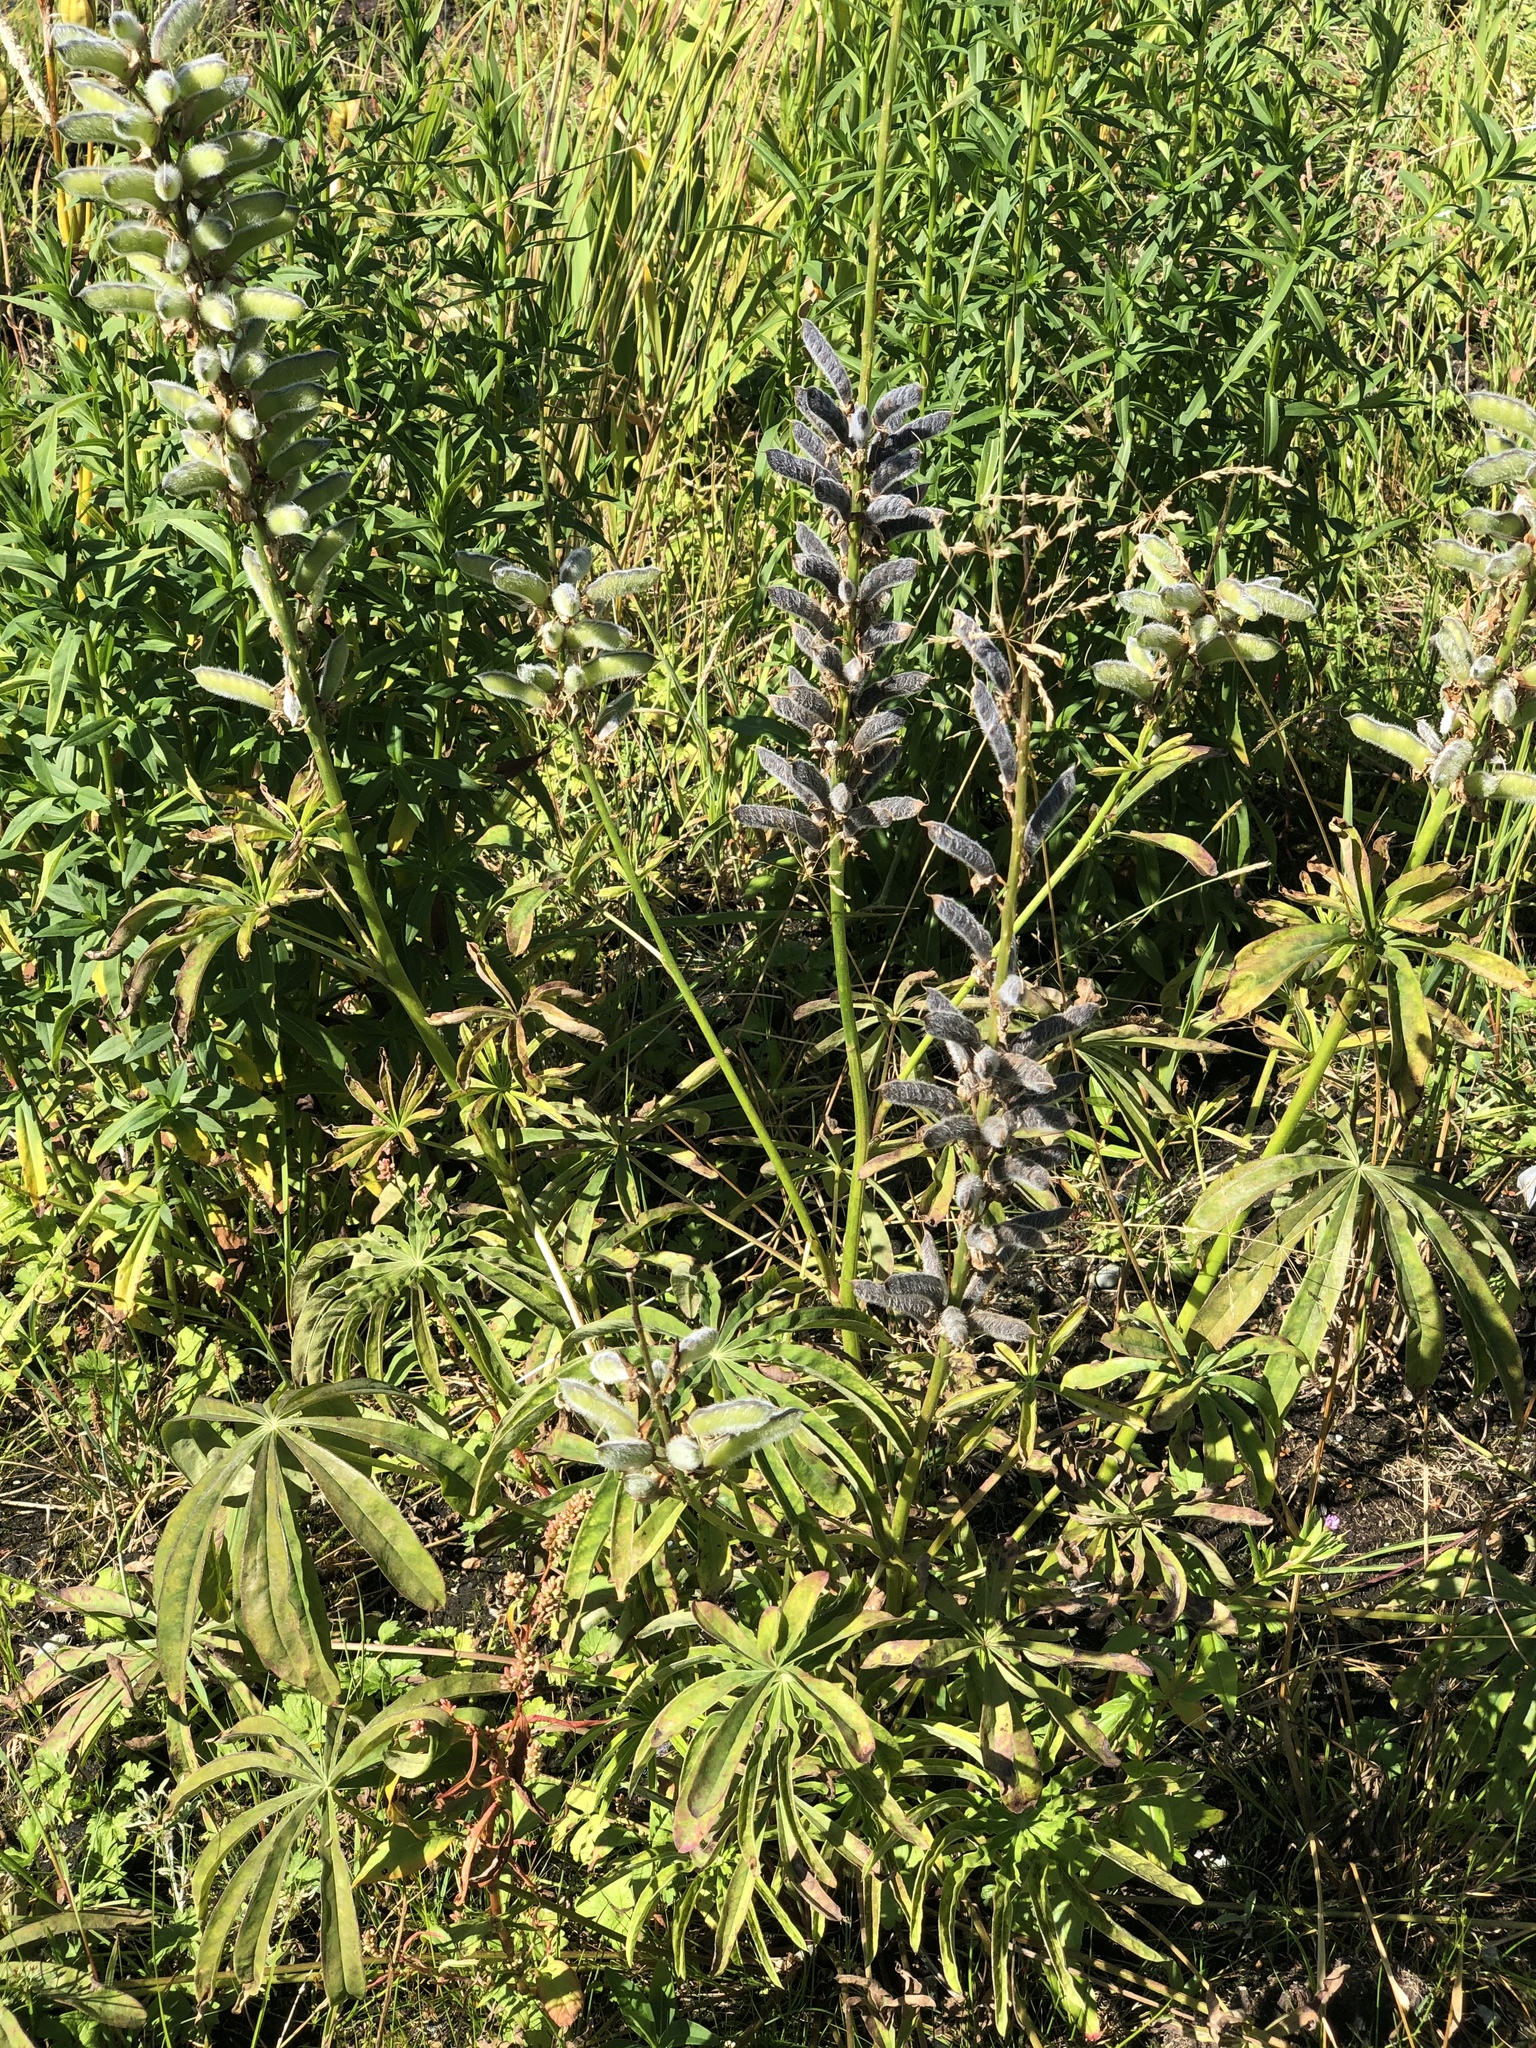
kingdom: Plantae
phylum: Tracheophyta
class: Magnoliopsida
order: Fabales
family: Fabaceae
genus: Lupinus
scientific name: Lupinus polyphyllus
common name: Garden lupin
